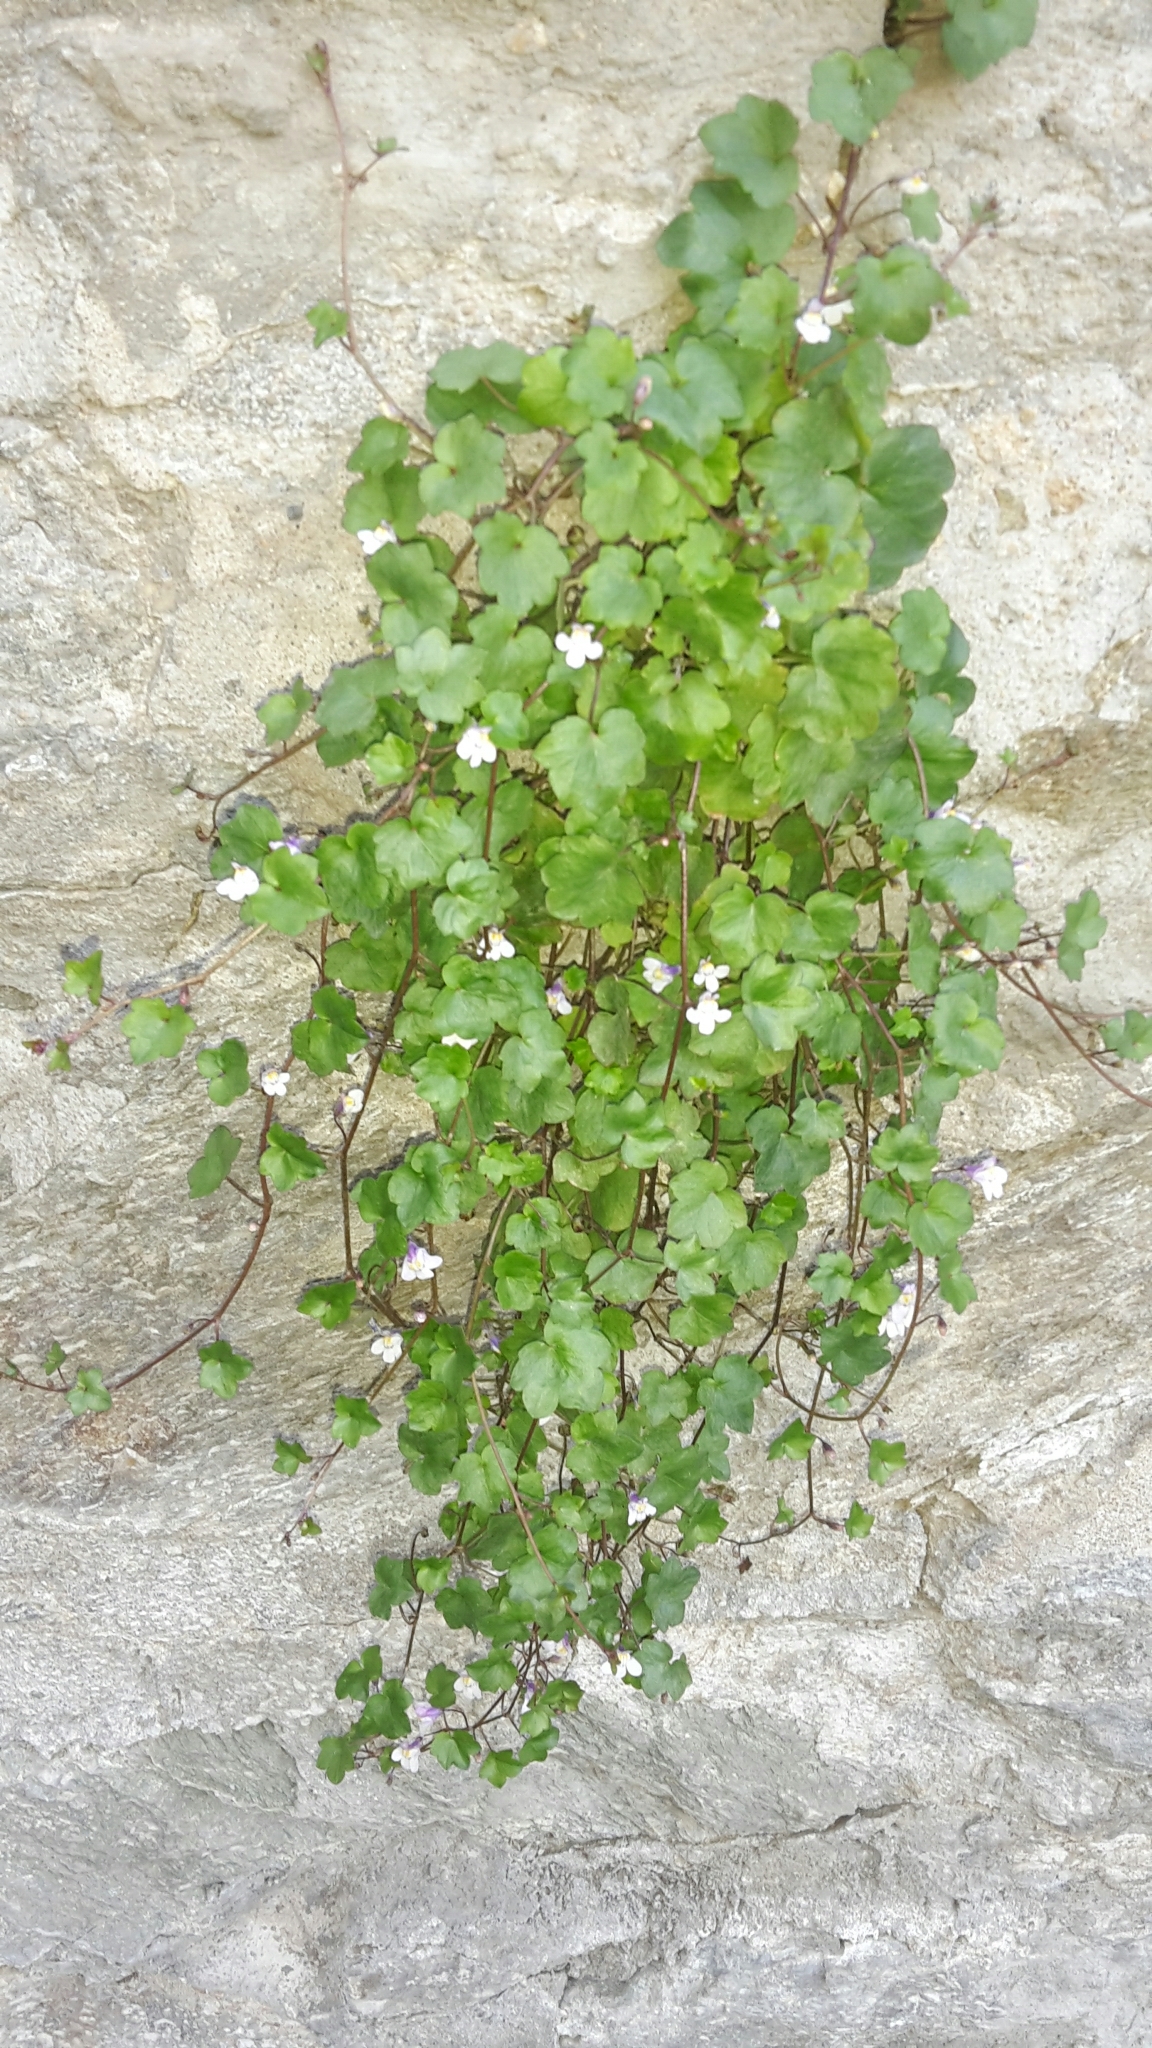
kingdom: Plantae
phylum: Tracheophyta
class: Magnoliopsida
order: Lamiales
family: Plantaginaceae
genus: Cymbalaria
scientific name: Cymbalaria muralis
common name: Ivy-leaved toadflax
